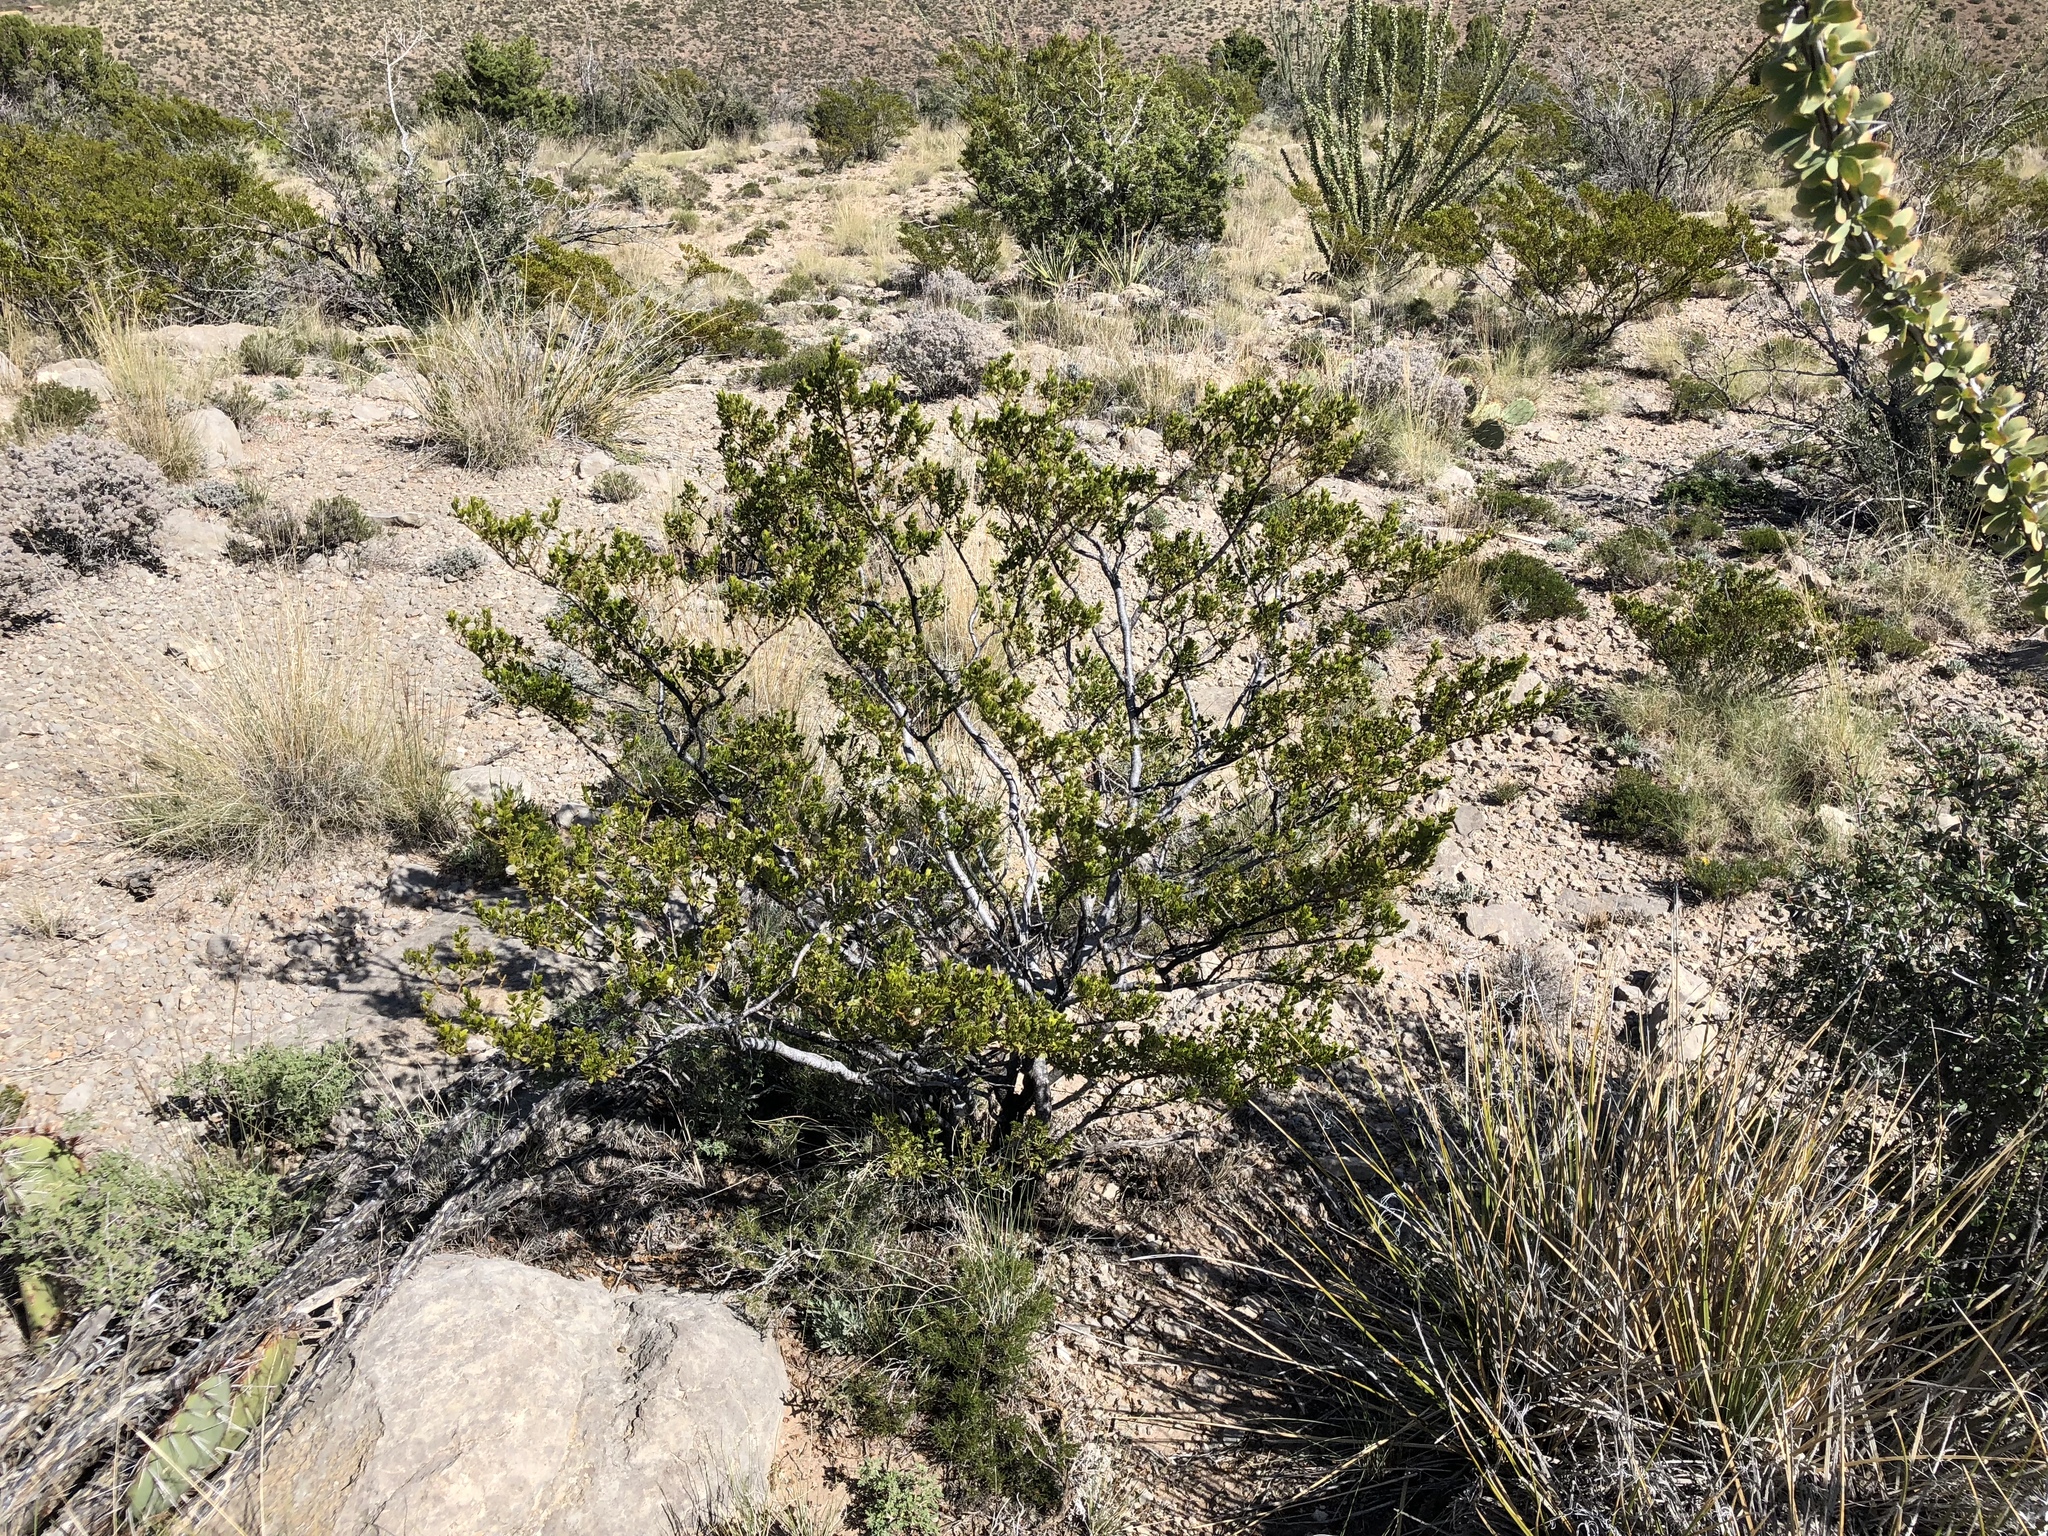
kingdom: Plantae
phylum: Tracheophyta
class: Magnoliopsida
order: Zygophyllales
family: Zygophyllaceae
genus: Larrea
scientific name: Larrea tridentata
